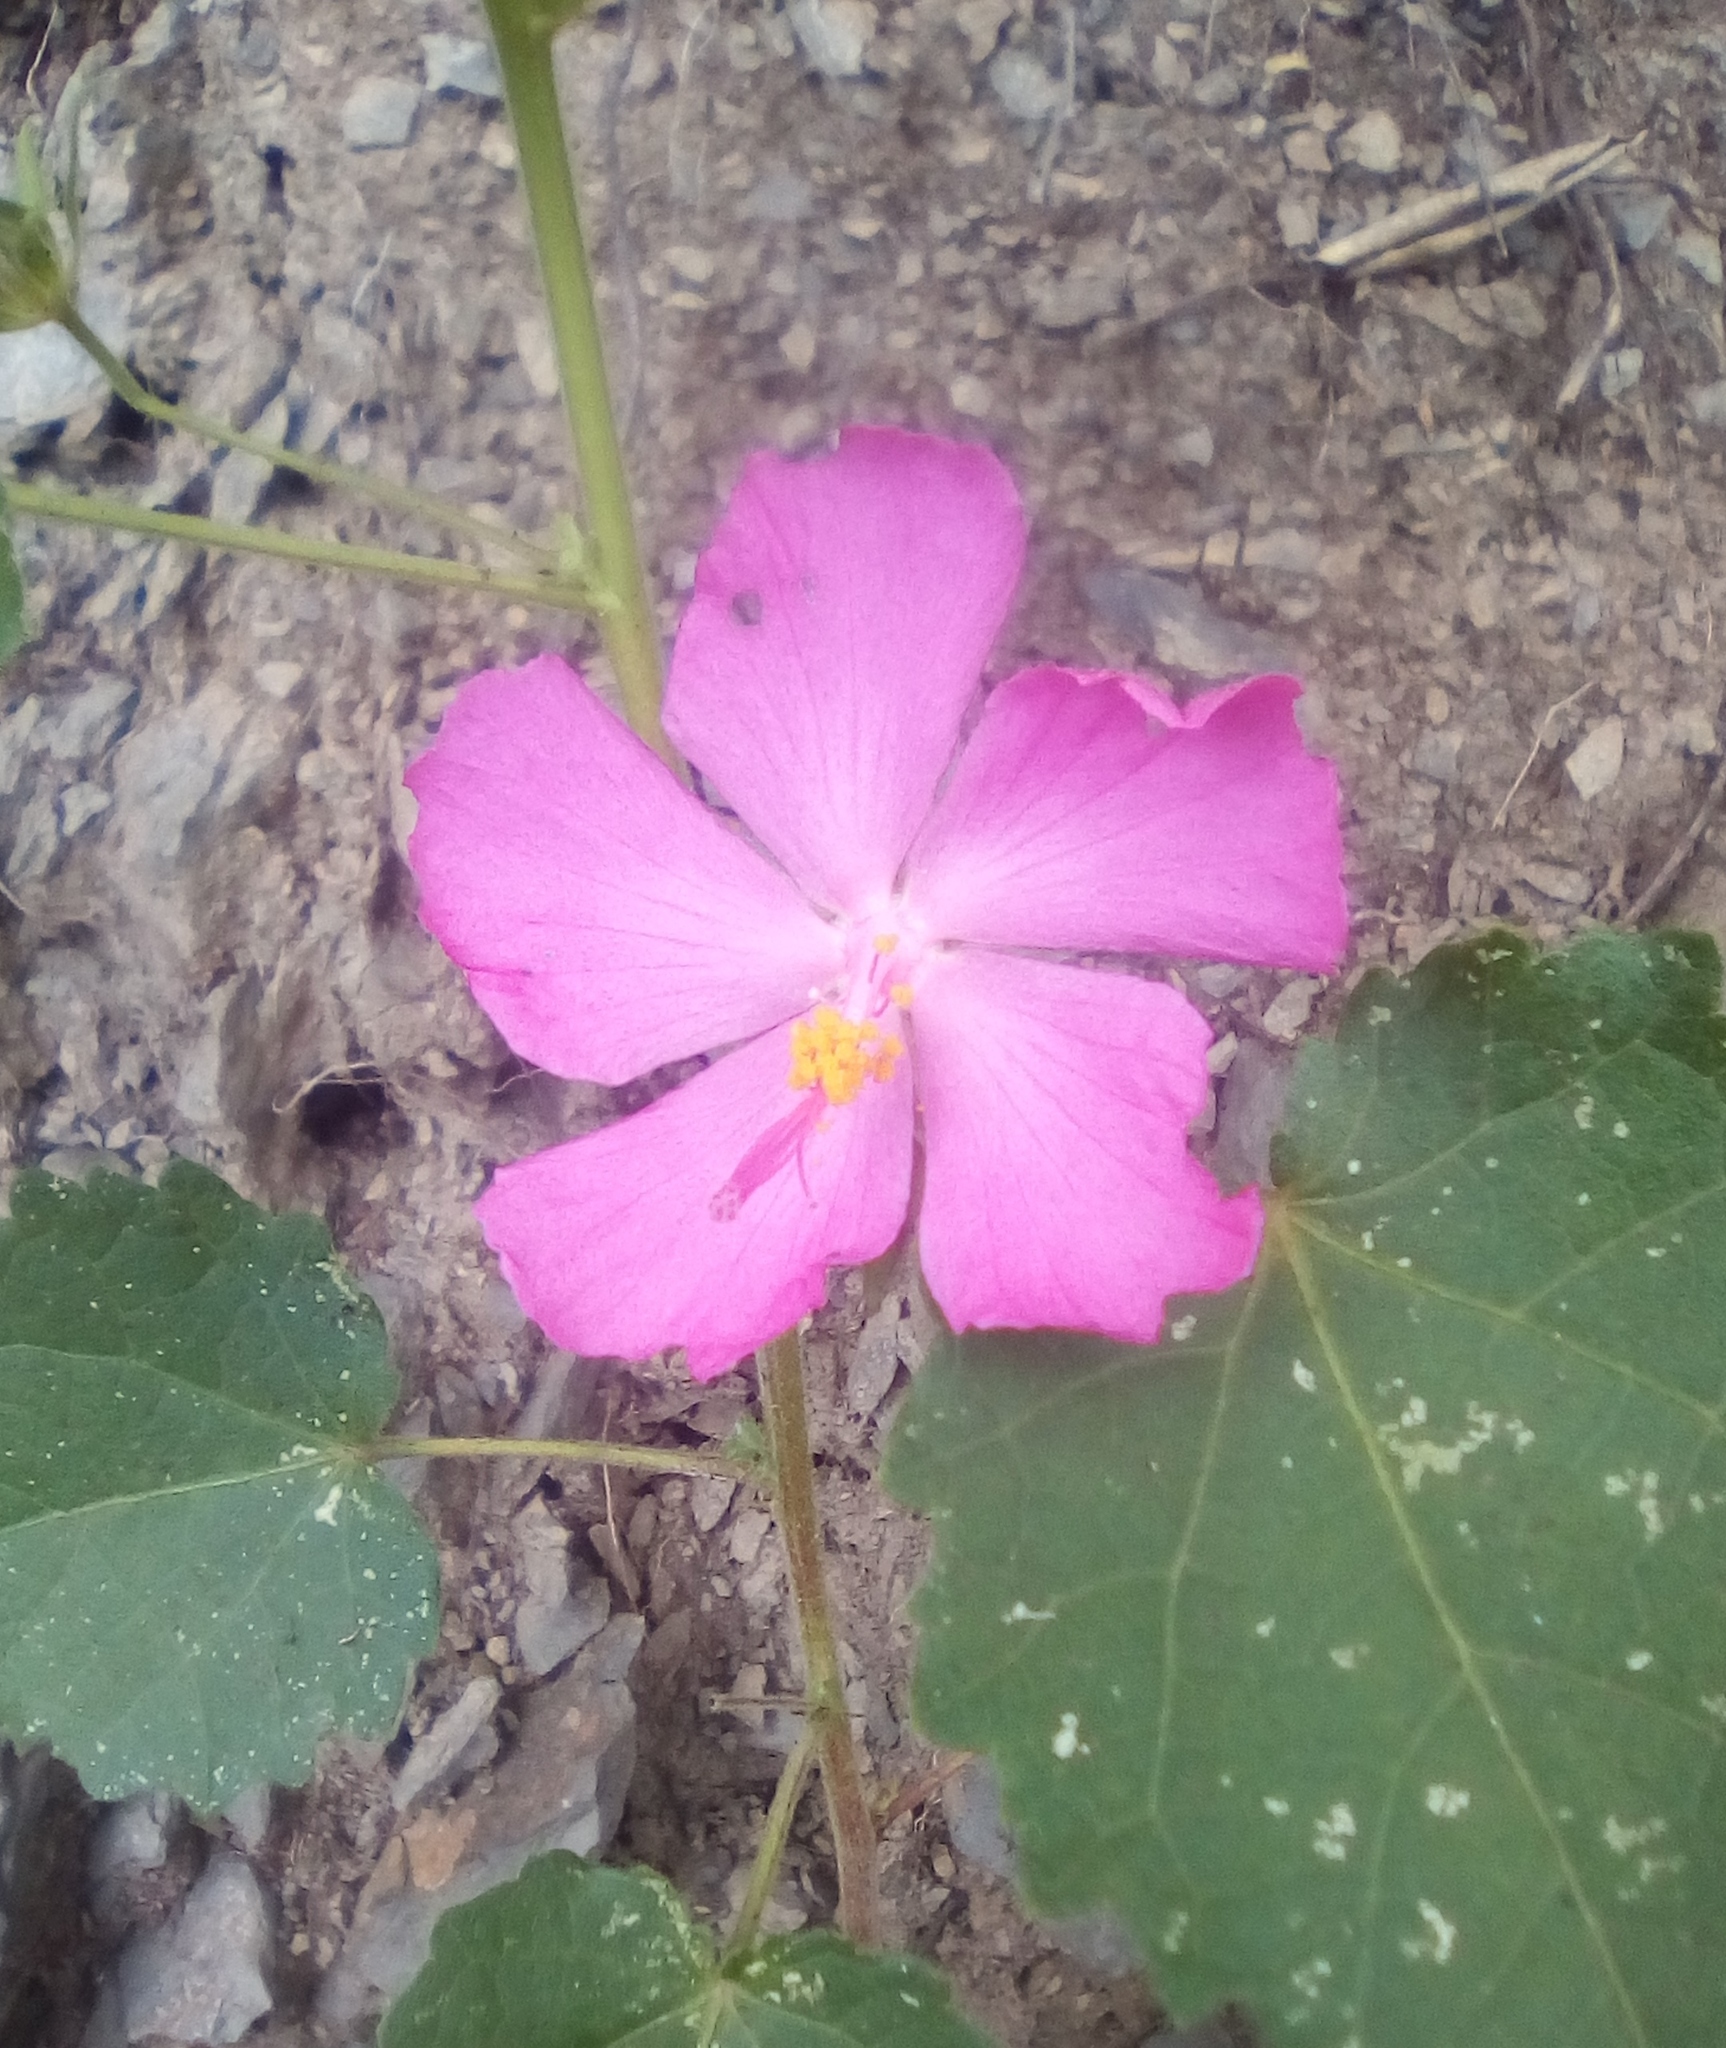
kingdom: Plantae
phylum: Tracheophyta
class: Magnoliopsida
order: Malvales
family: Malvaceae
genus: Pavonia
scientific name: Pavonia lasiopetala
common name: Texas swamp-mallow
